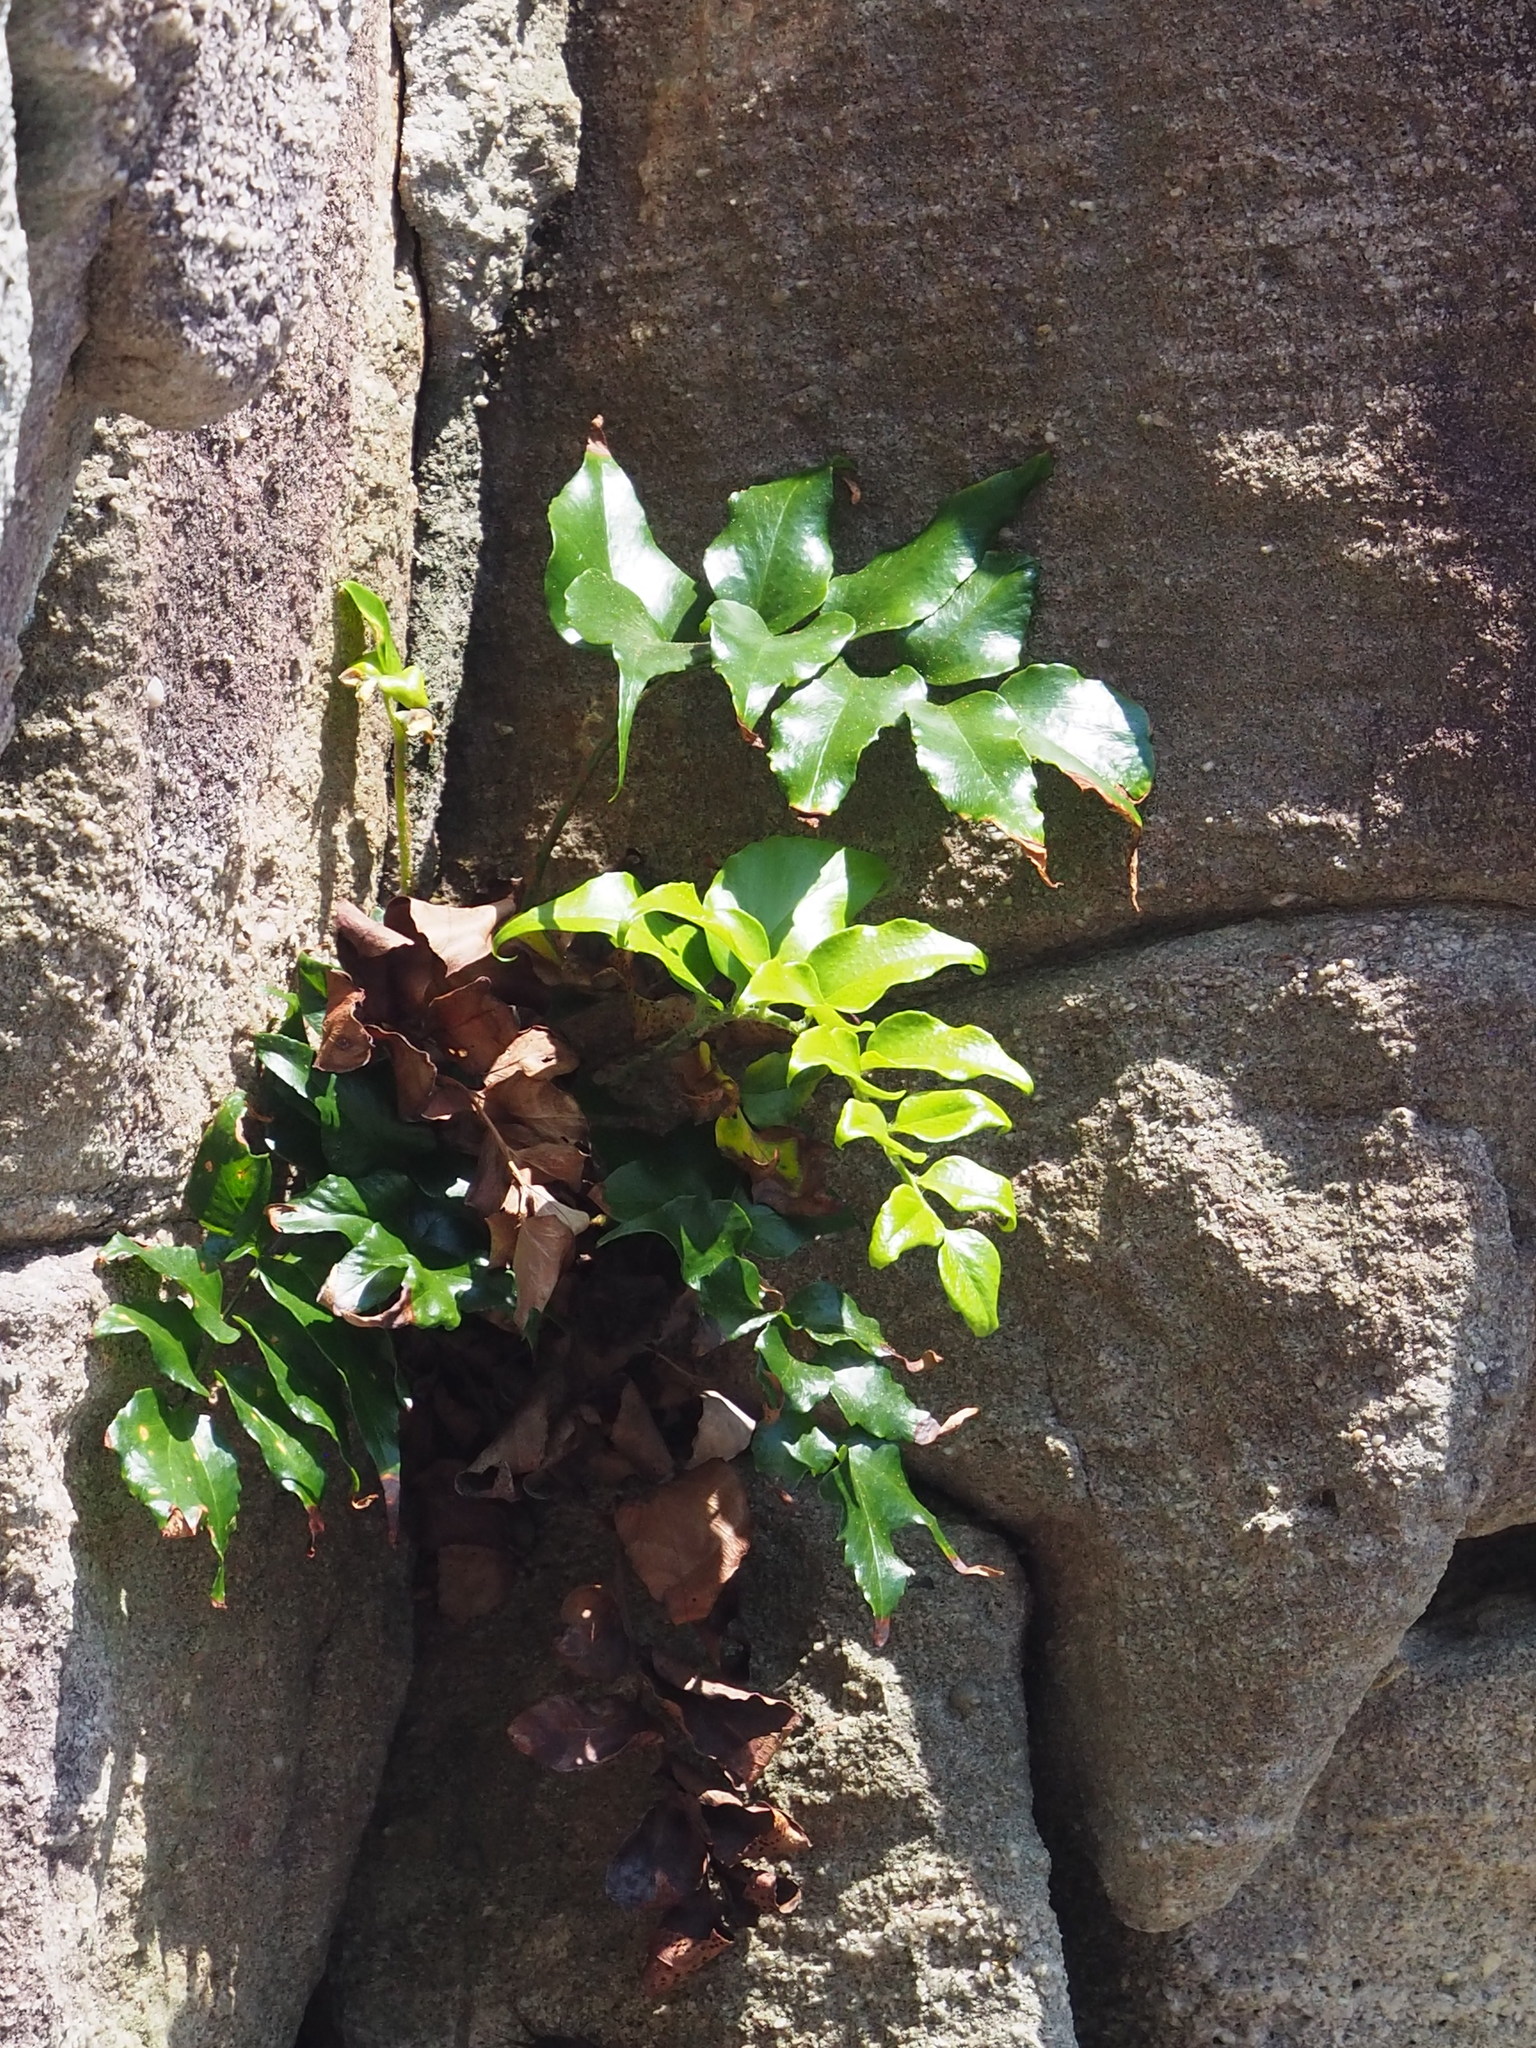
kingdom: Plantae
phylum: Tracheophyta
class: Polypodiopsida
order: Polypodiales
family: Dryopteridaceae
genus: Cyrtomium
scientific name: Cyrtomium falcatum
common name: House holly-fern
